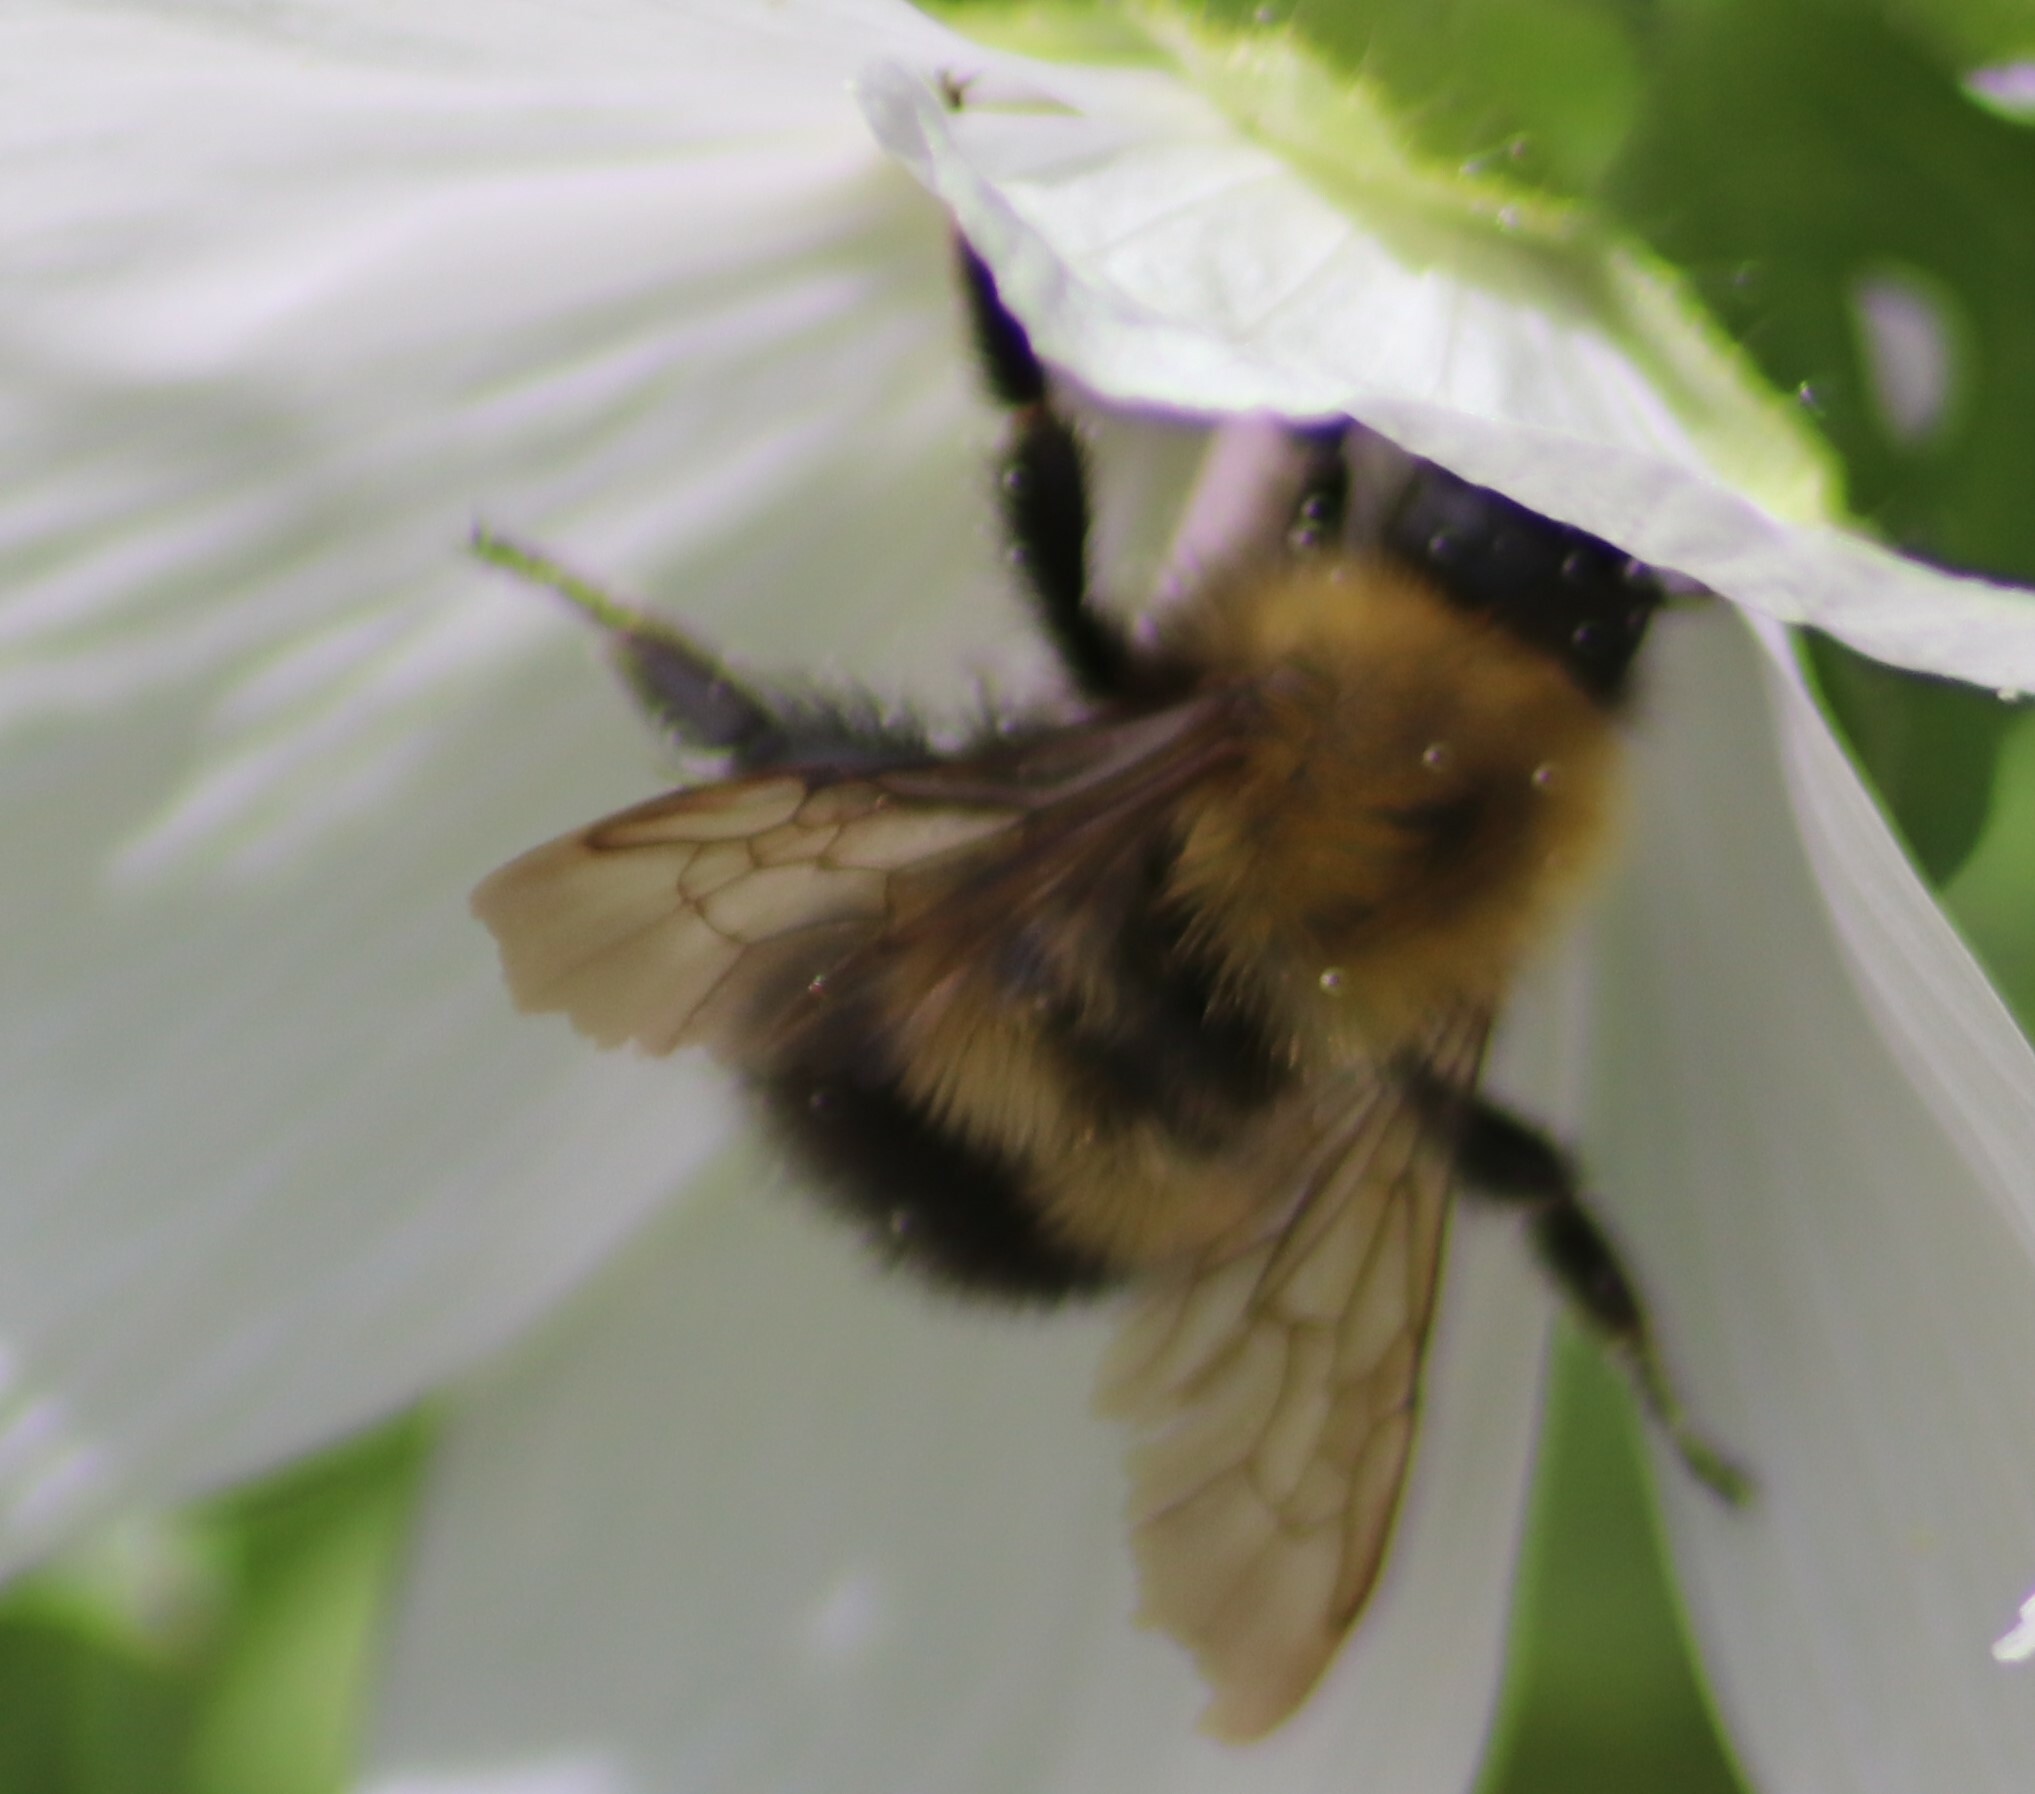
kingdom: Animalia
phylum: Arthropoda
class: Insecta
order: Hymenoptera
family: Apidae
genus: Bombus
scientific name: Bombus perplexus
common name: Confusing bumble bee
